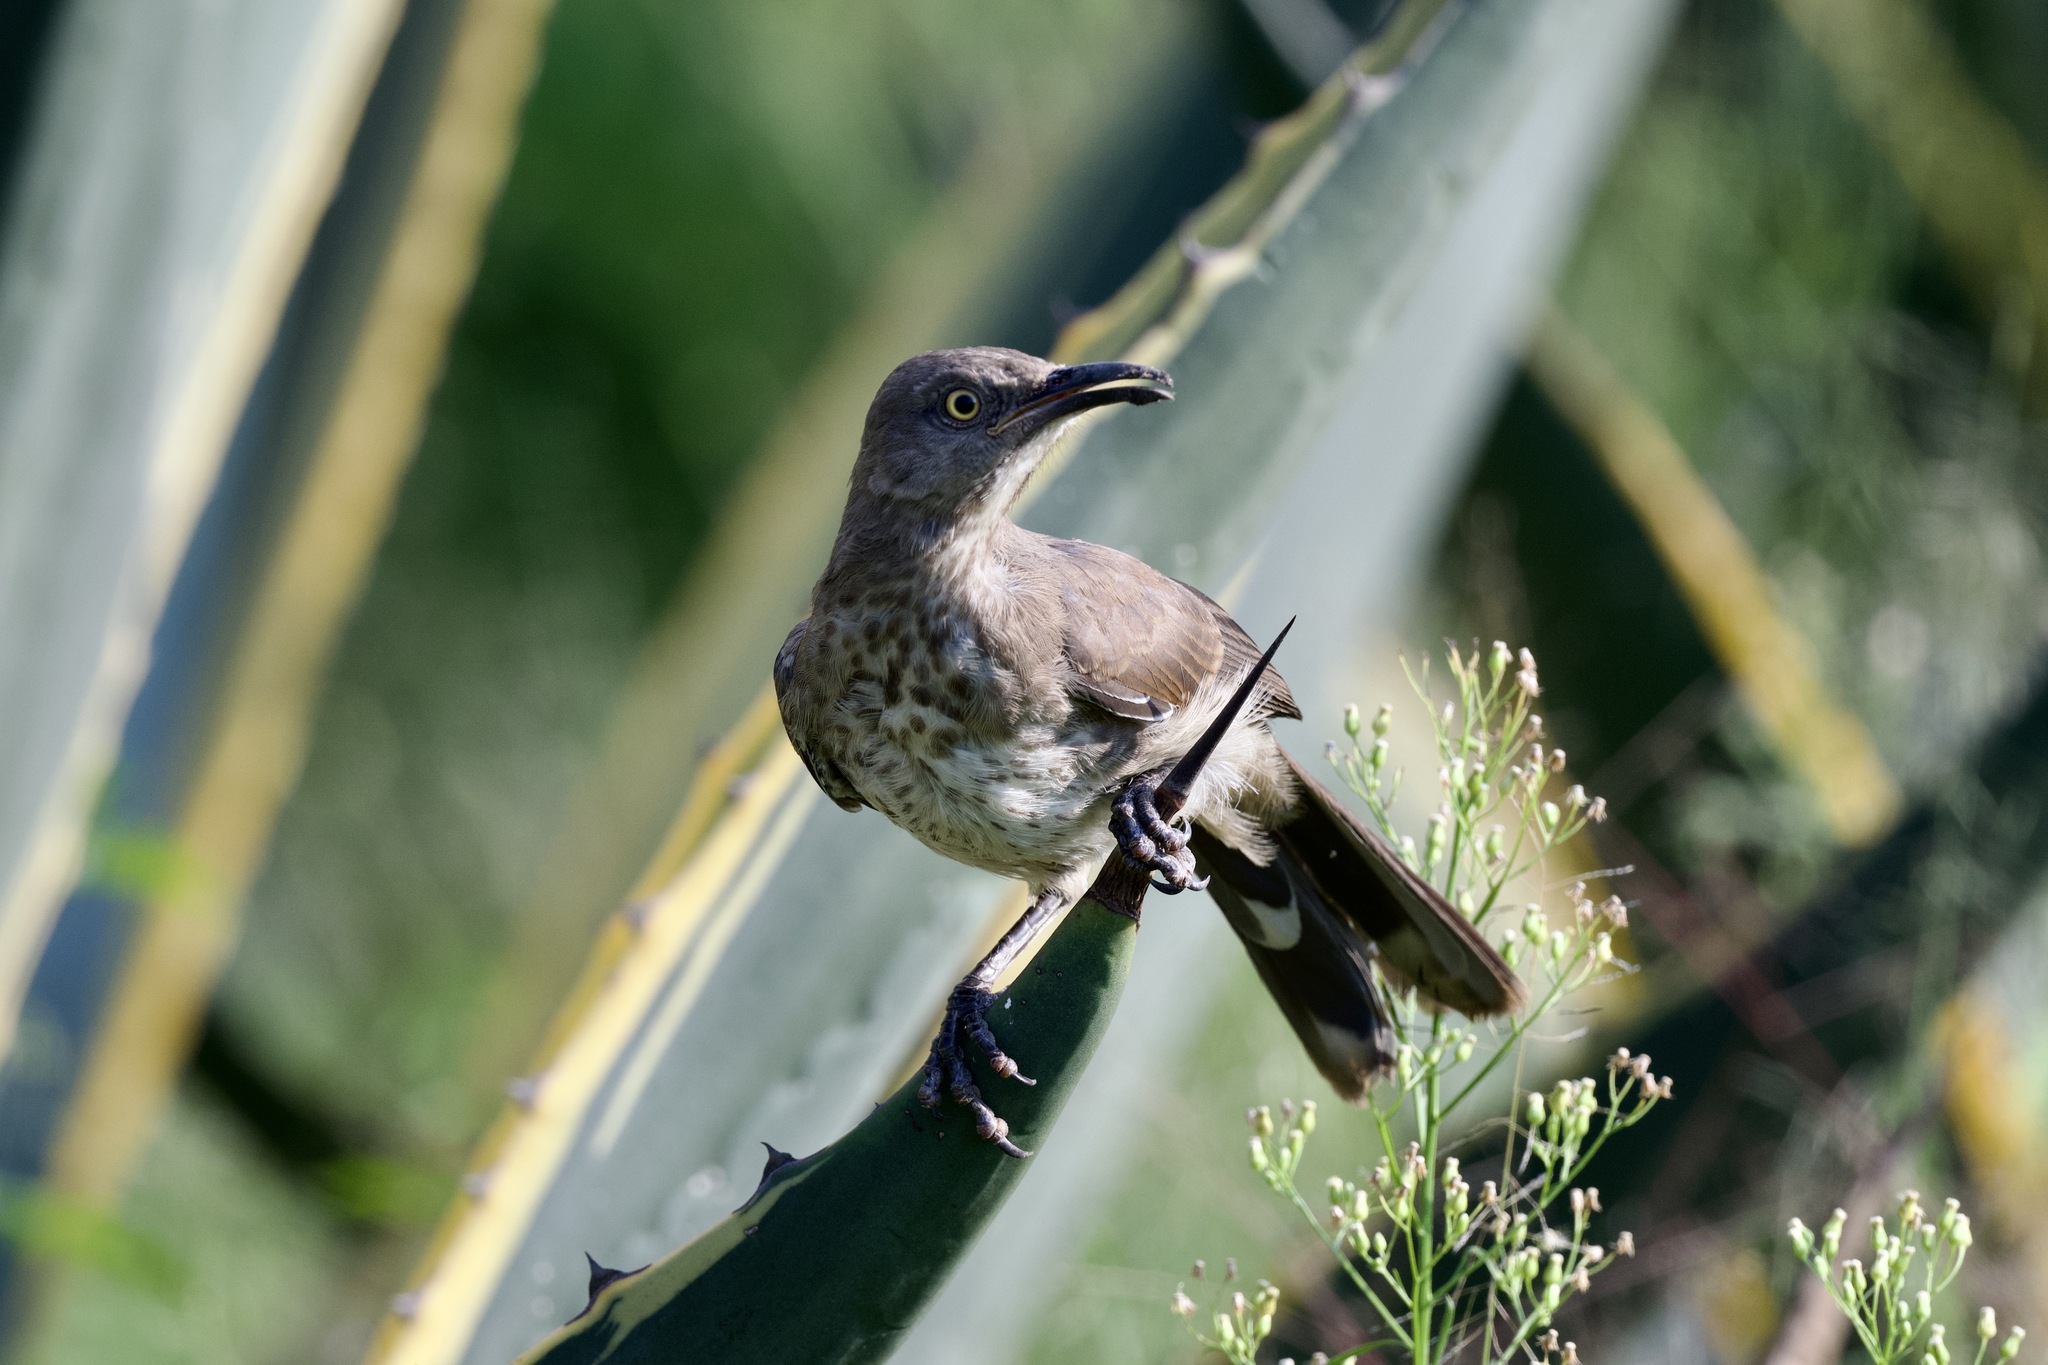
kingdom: Animalia
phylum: Chordata
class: Aves
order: Passeriformes
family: Mimidae
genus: Toxostoma
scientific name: Toxostoma curvirostre
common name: Curve-billed thrasher
